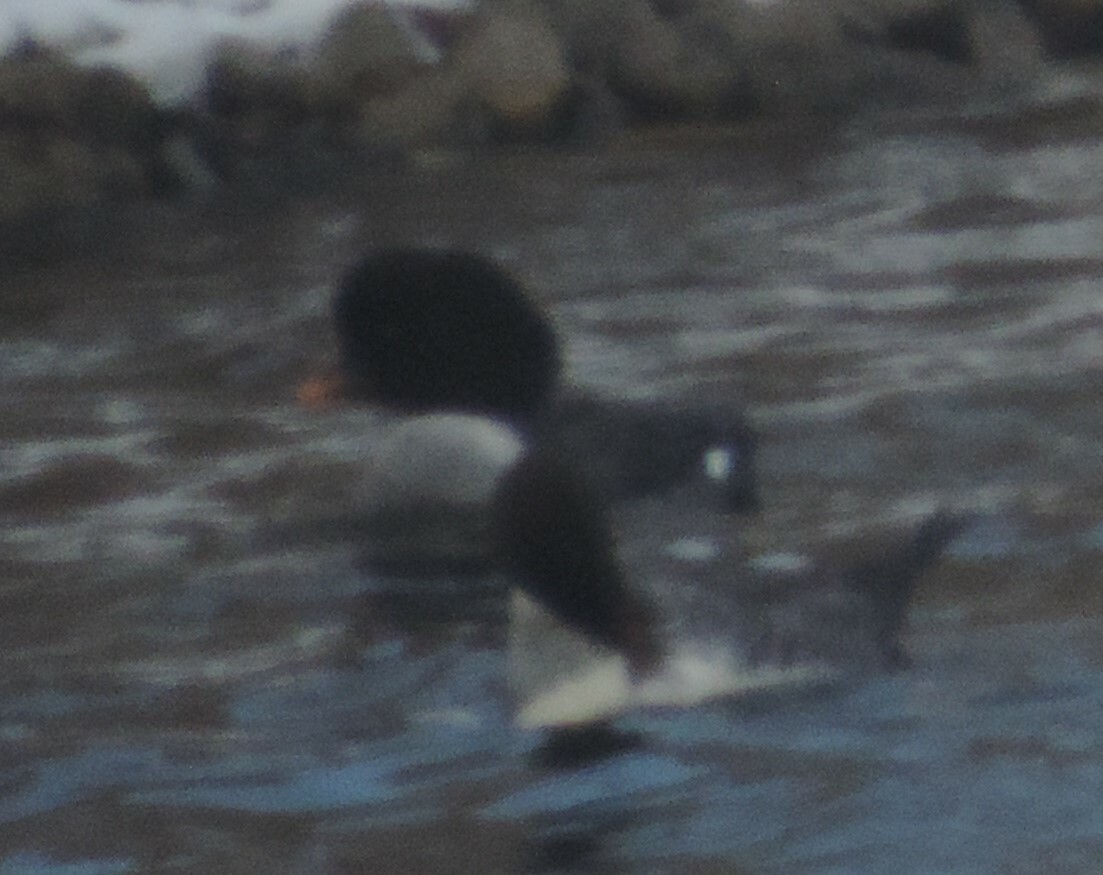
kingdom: Animalia
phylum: Chordata
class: Aves
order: Anseriformes
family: Anatidae
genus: Bucephala
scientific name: Bucephala islandica
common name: Barrow's goldeneye
